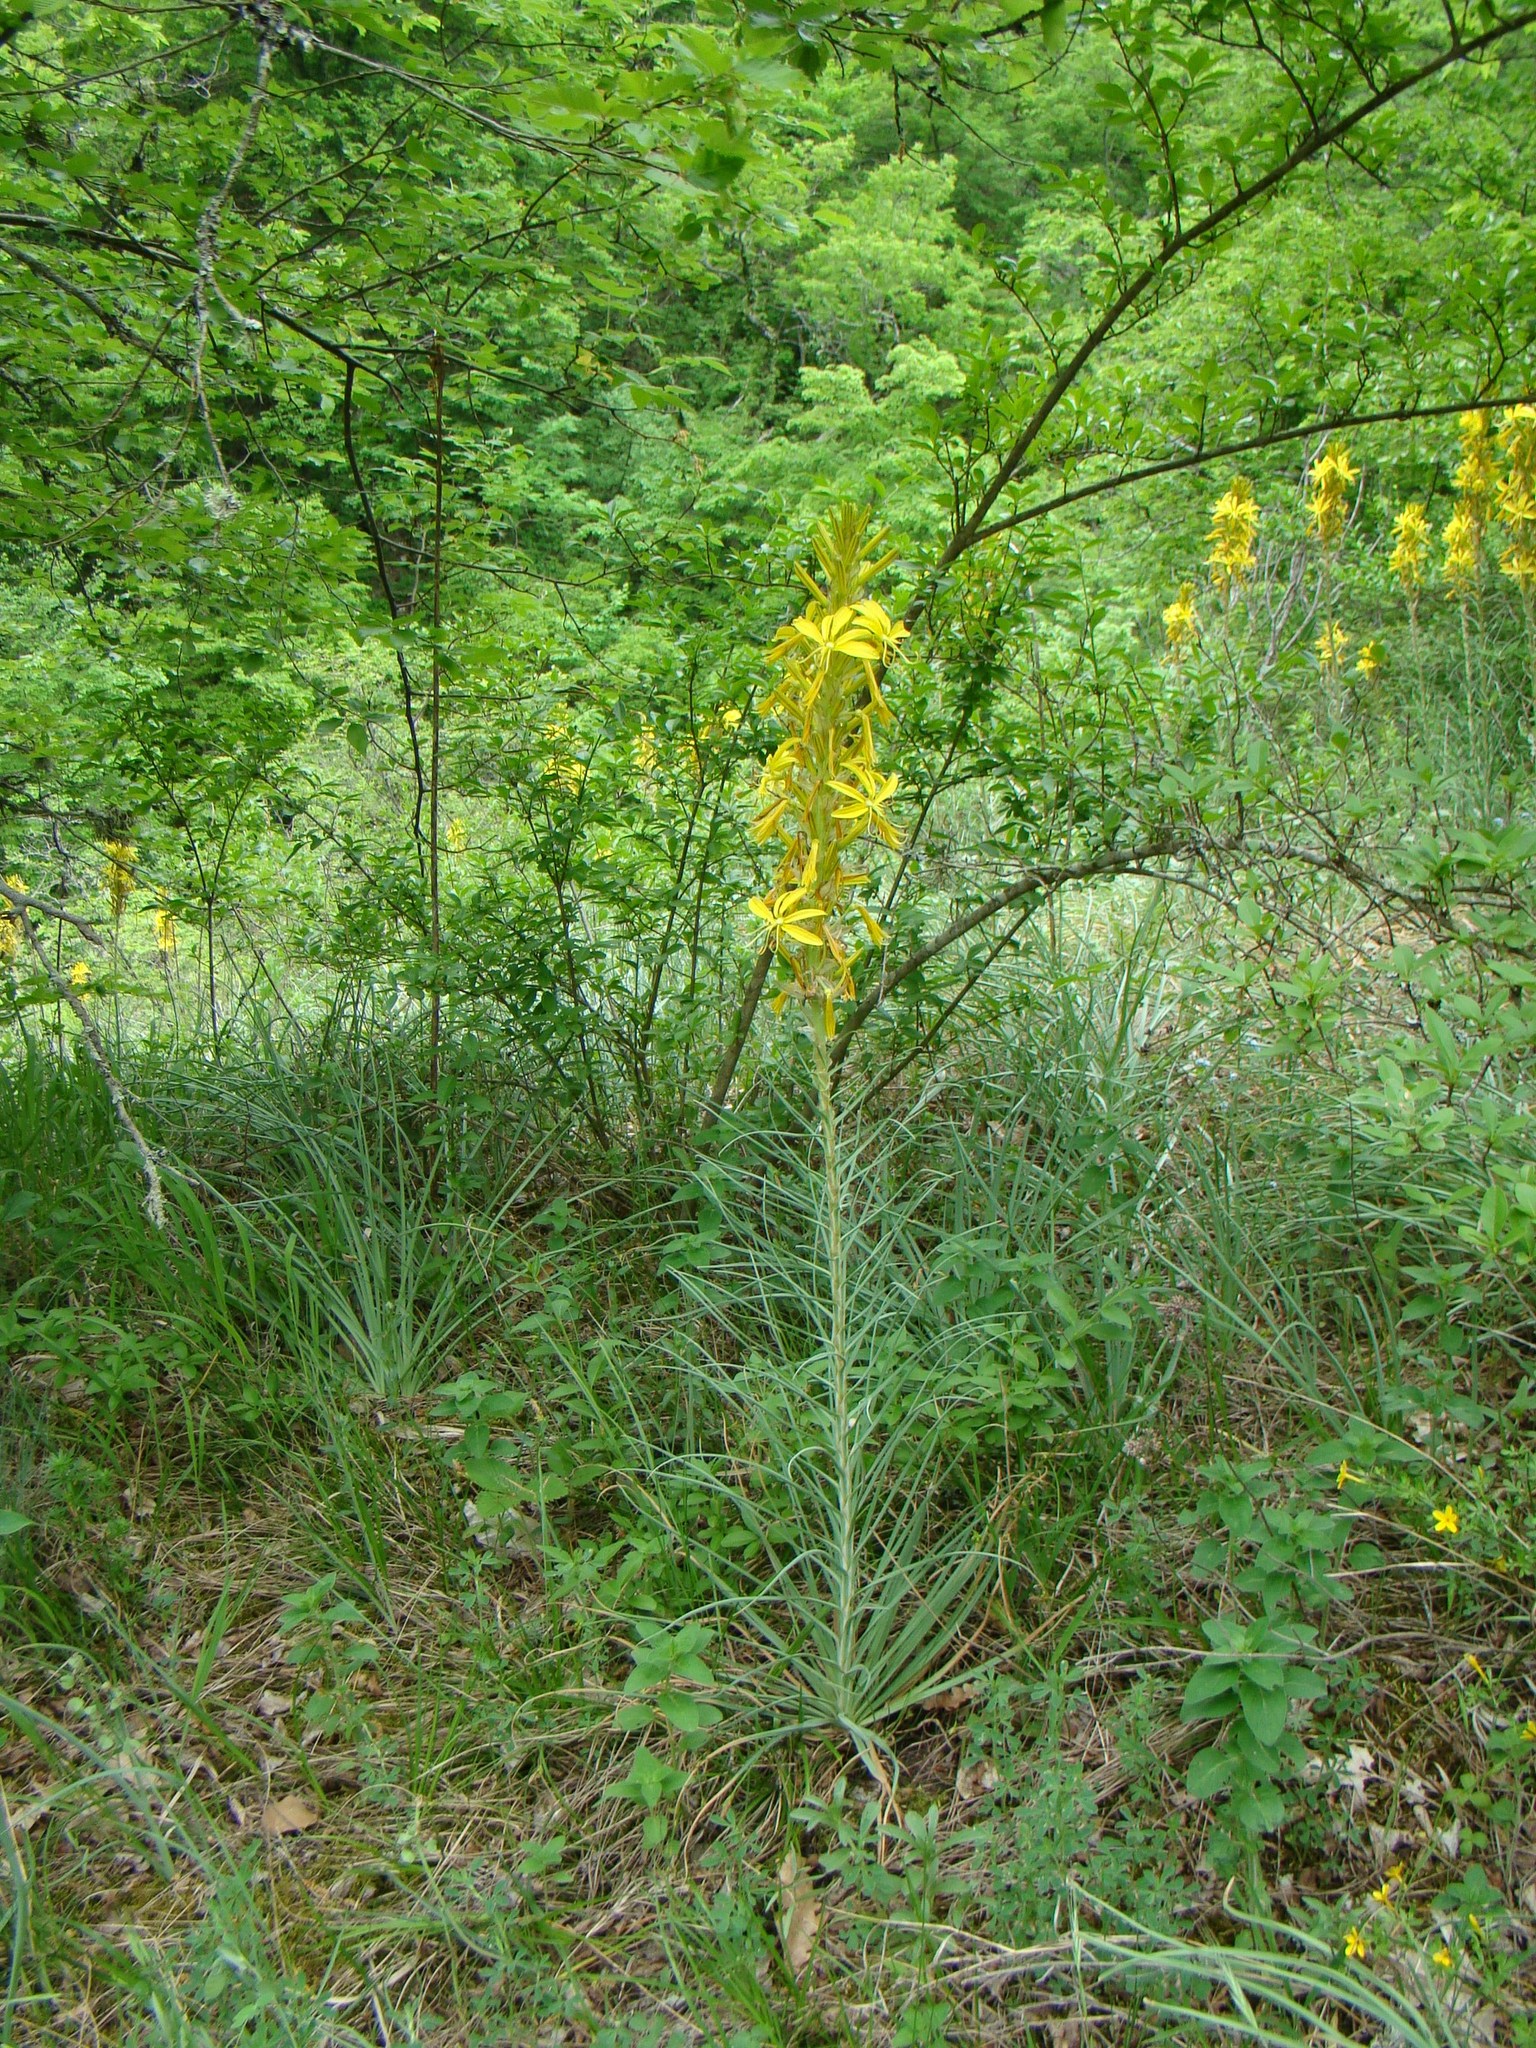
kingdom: Plantae
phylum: Tracheophyta
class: Liliopsida
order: Asparagales
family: Asphodelaceae
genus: Asphodeline
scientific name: Asphodeline lutea
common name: Yellow asphodel
